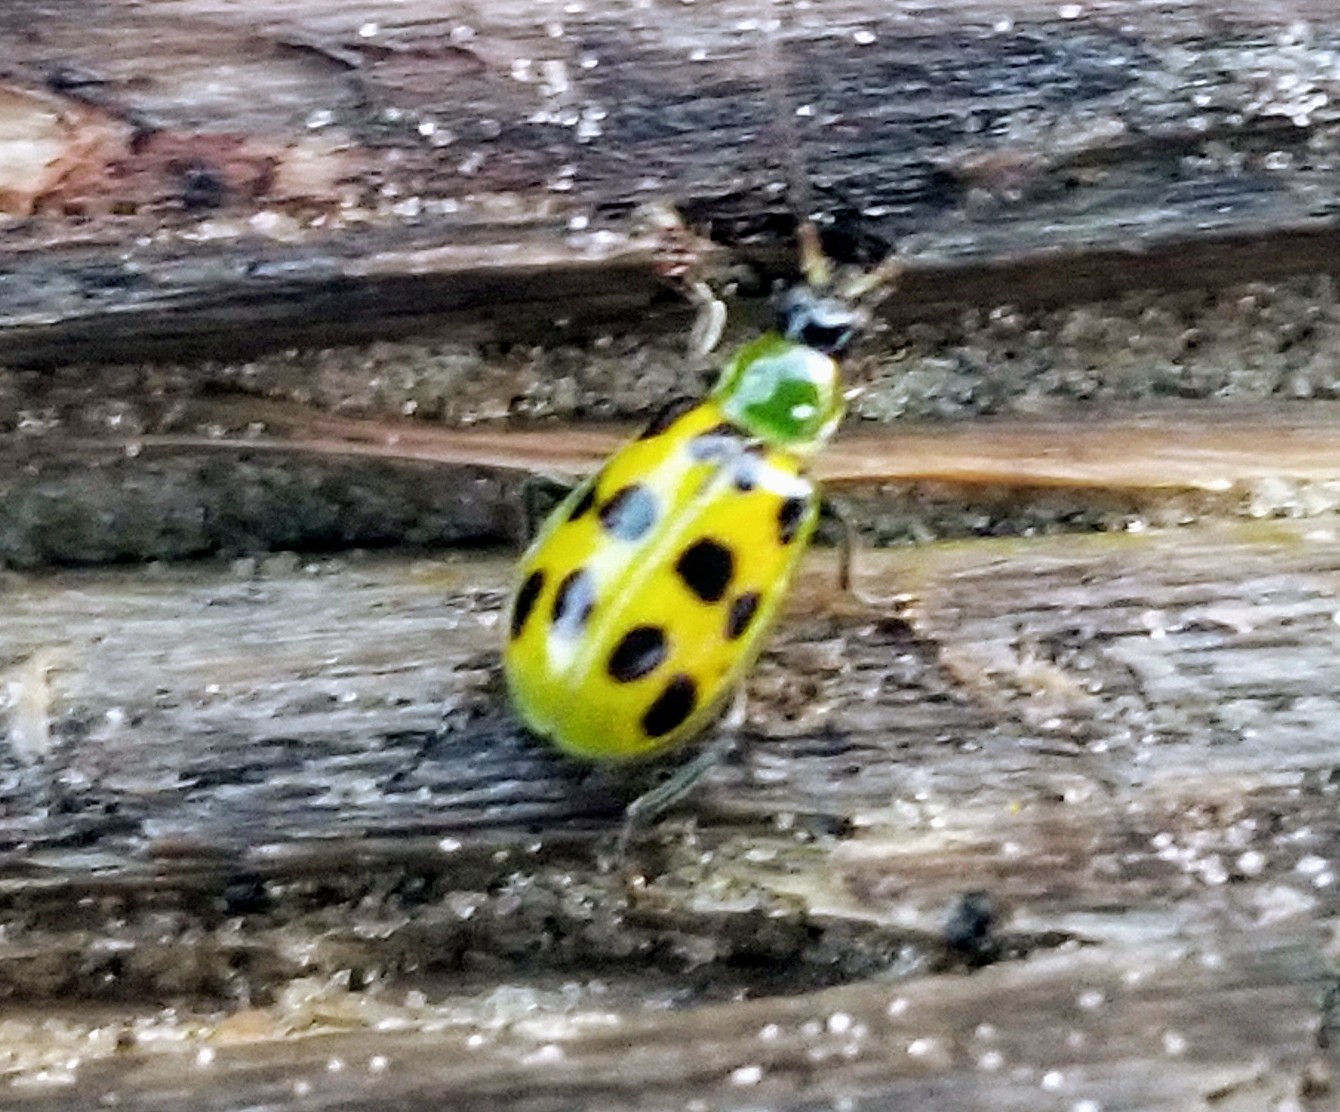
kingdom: Animalia
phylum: Arthropoda
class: Insecta
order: Coleoptera
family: Chrysomelidae
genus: Diabrotica
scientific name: Diabrotica undecimpunctata
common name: Spotted cucumber beetle
